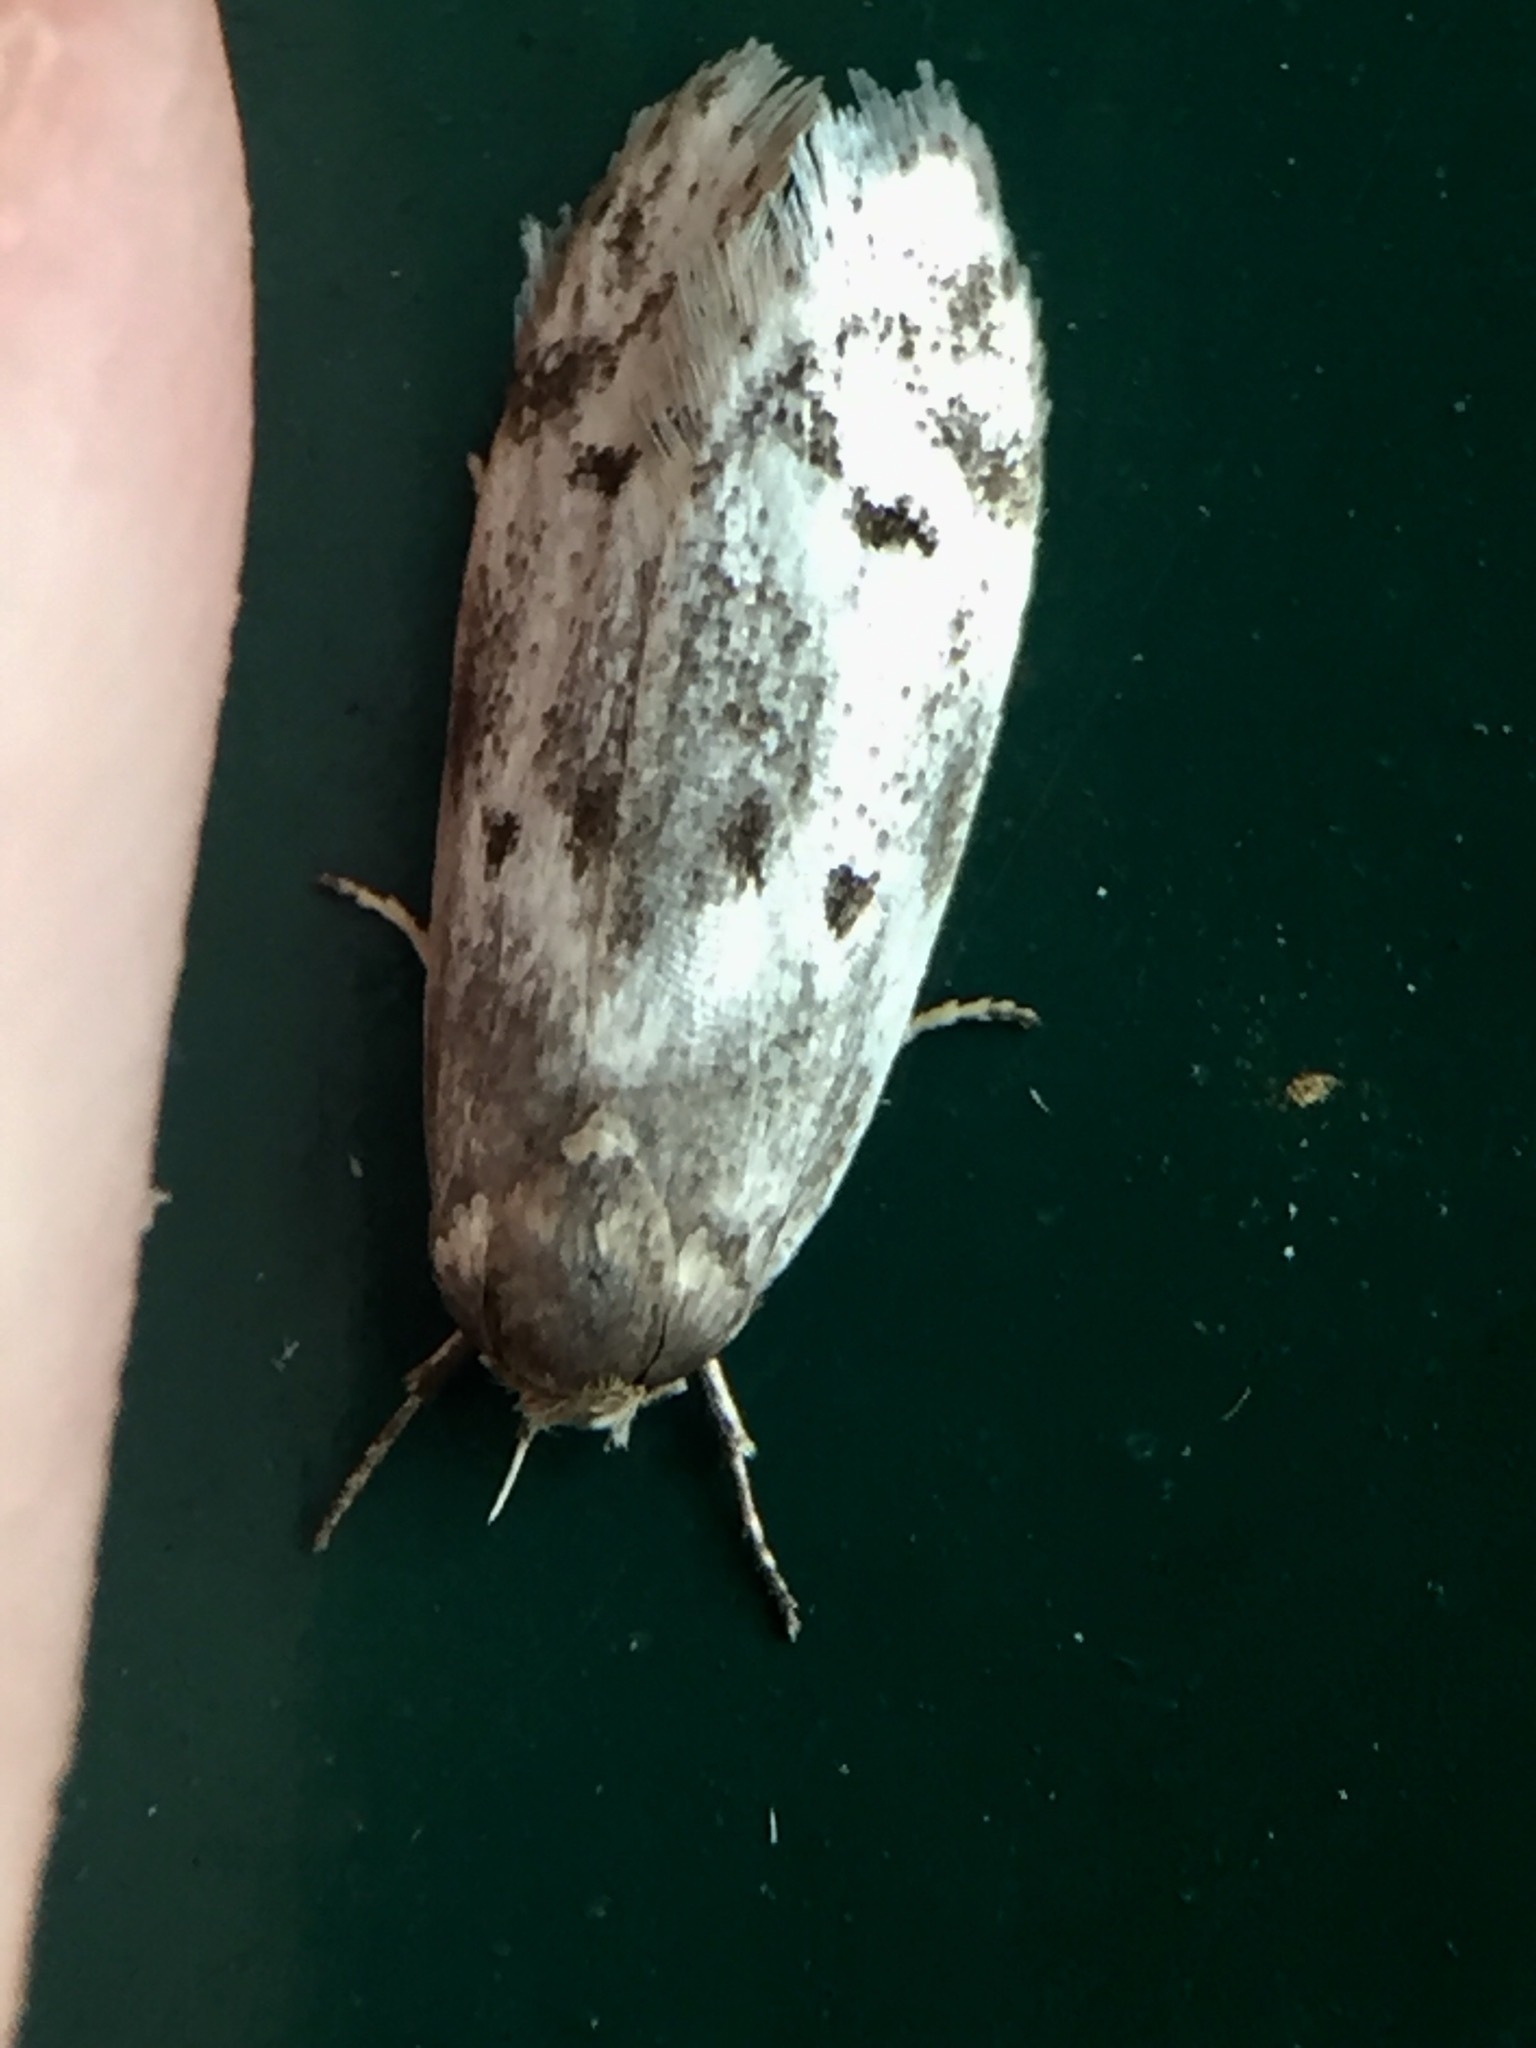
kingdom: Animalia
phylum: Arthropoda
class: Insecta
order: Lepidoptera
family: Oecophoridae
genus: Trachypepla
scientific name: Trachypepla indolescens
